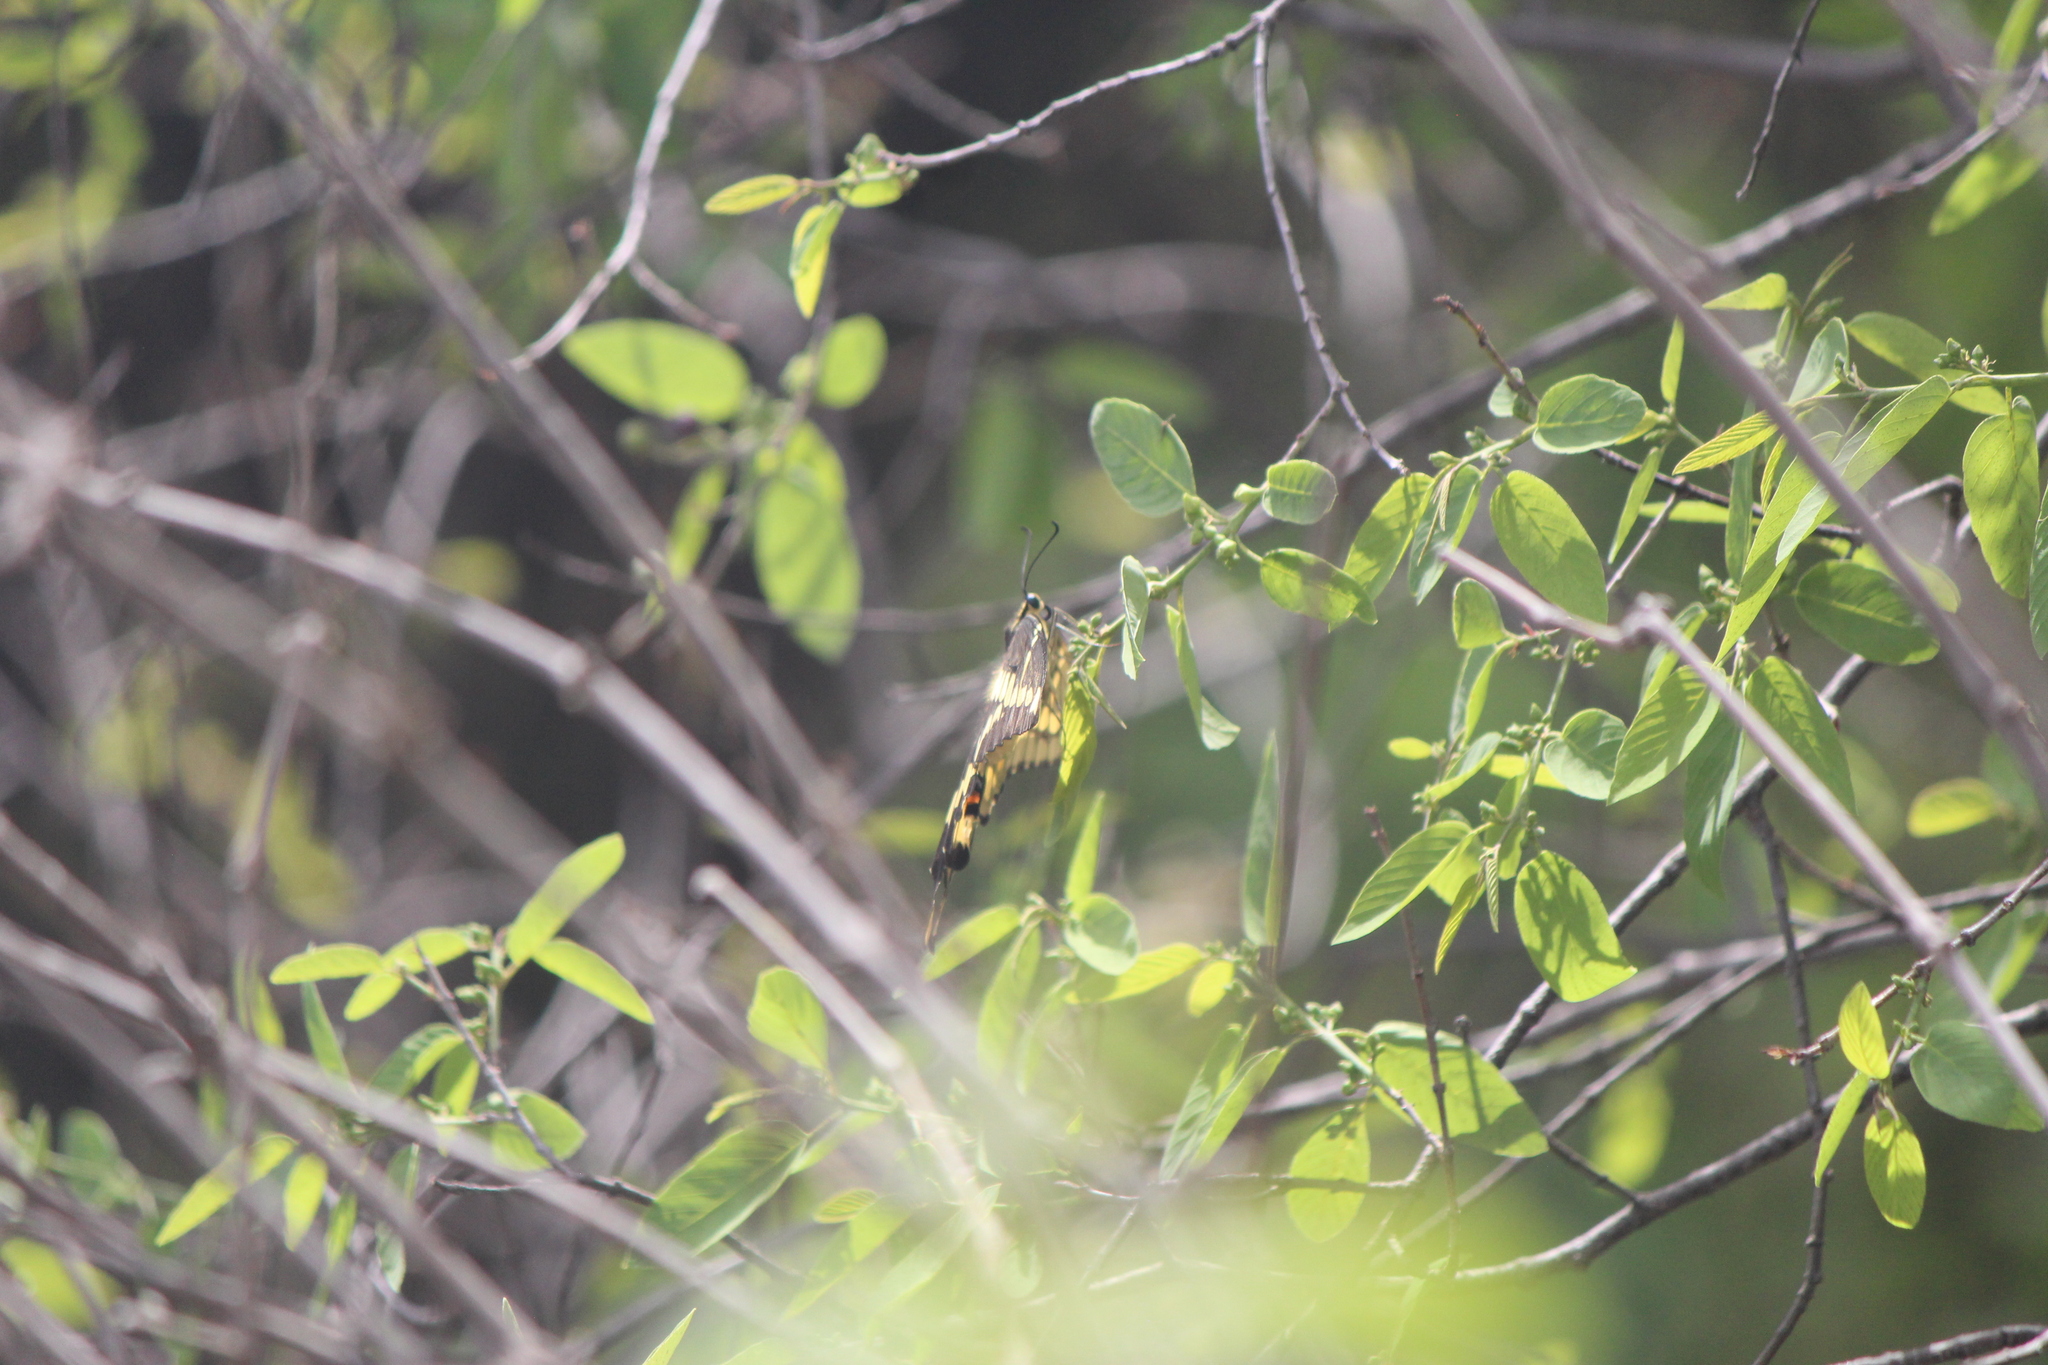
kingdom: Animalia
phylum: Arthropoda
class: Insecta
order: Lepidoptera
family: Papilionidae
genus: Papilio
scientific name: Papilio rumiko
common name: Western giant swallowtail
